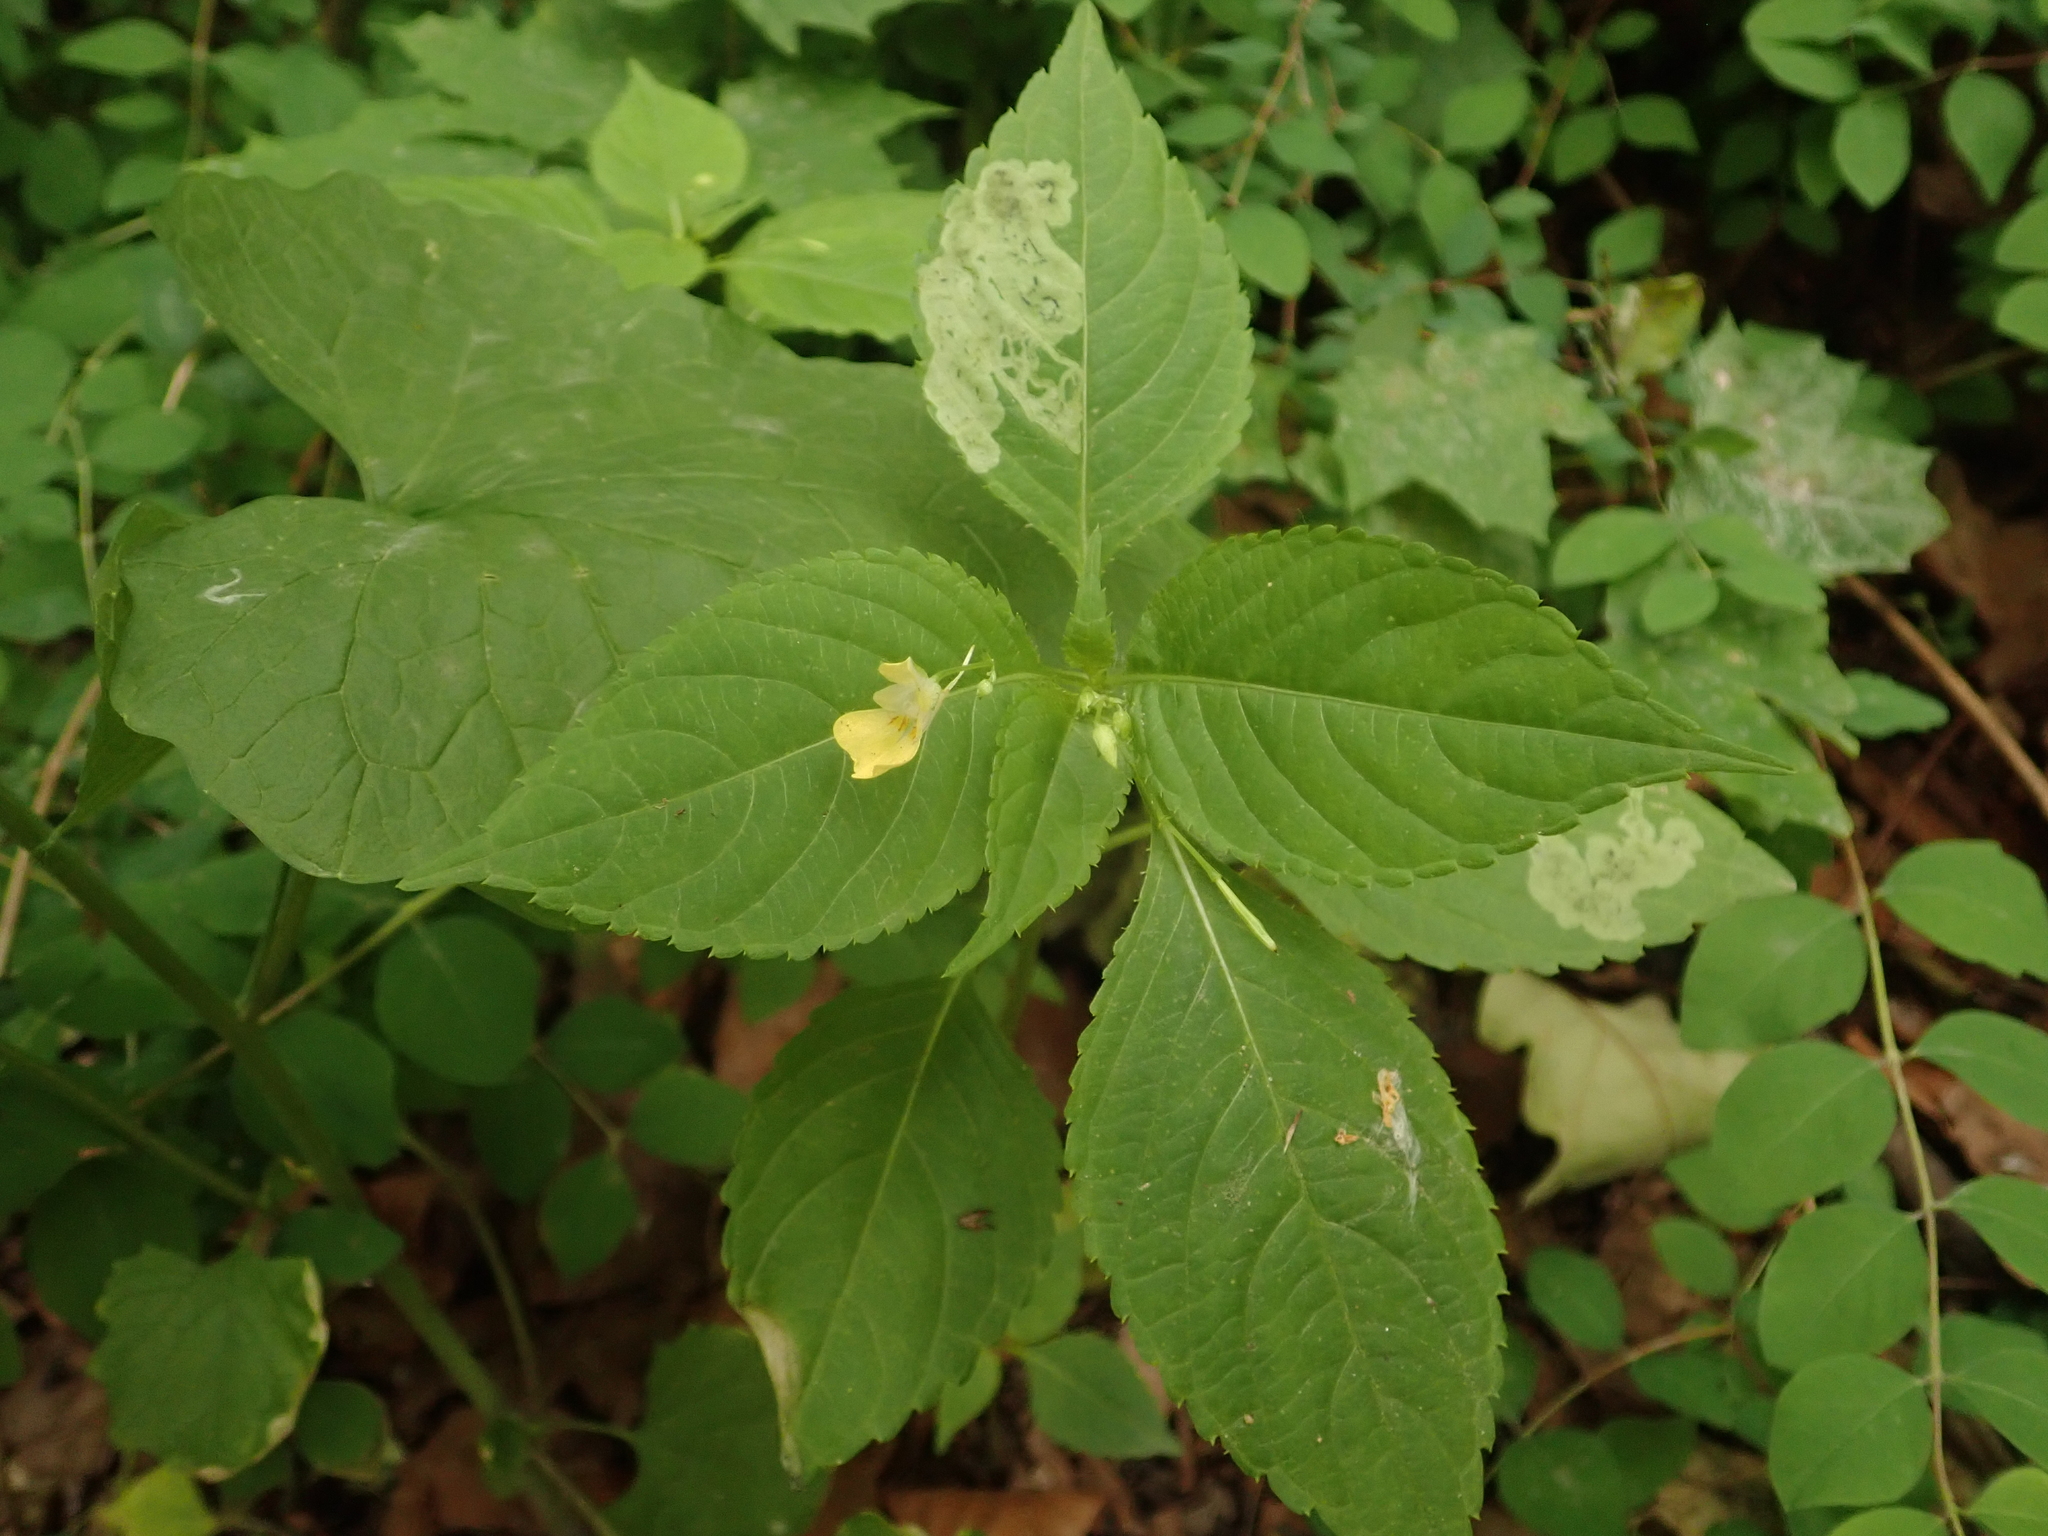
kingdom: Plantae
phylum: Tracheophyta
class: Magnoliopsida
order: Ericales
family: Balsaminaceae
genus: Impatiens
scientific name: Impatiens parviflora
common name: Small balsam
